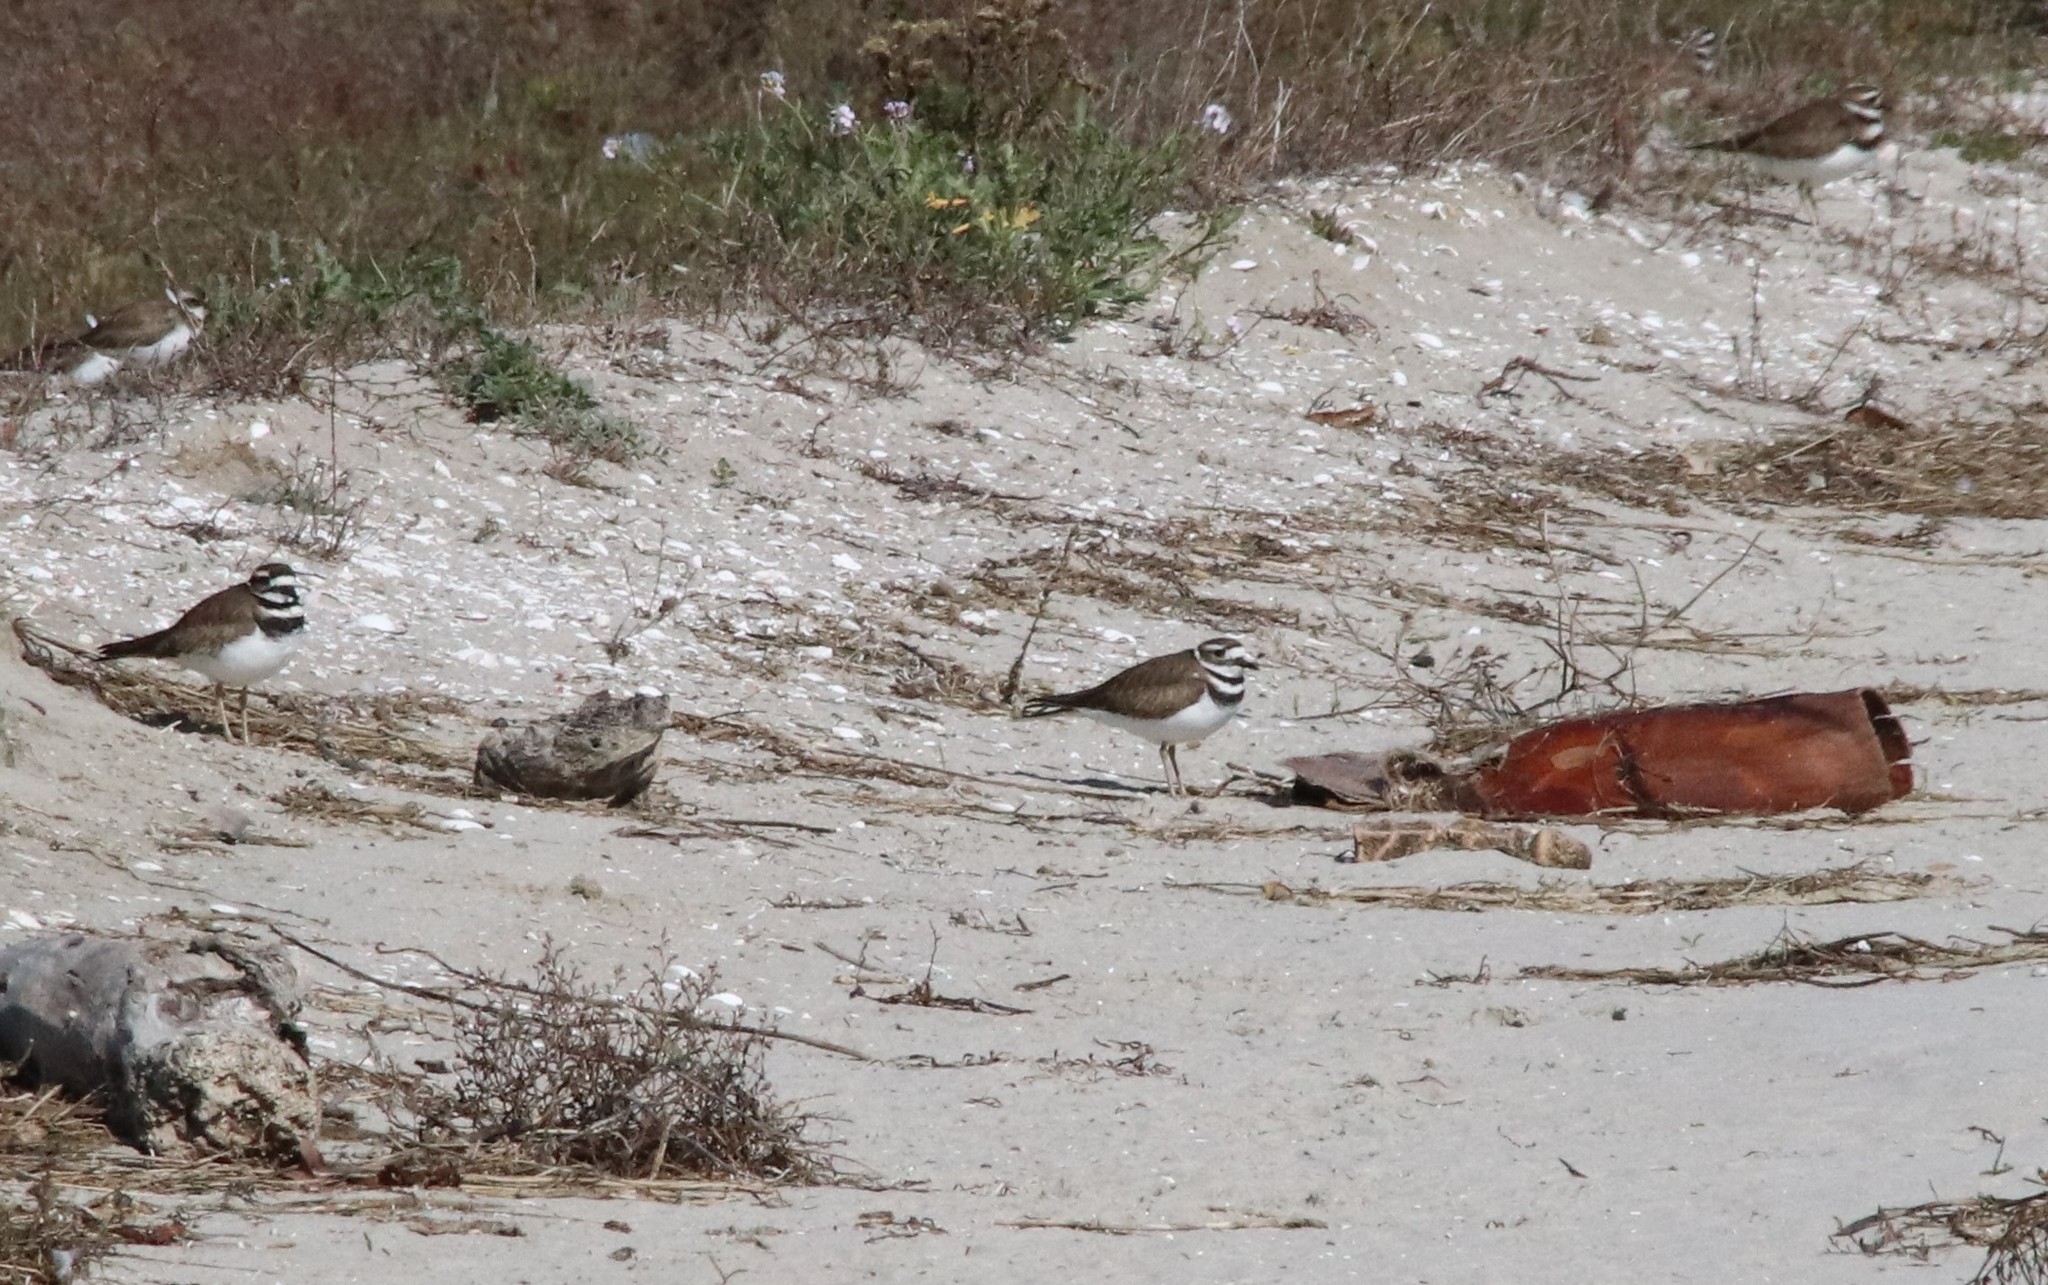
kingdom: Animalia
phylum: Chordata
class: Aves
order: Charadriiformes
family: Charadriidae
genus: Charadrius
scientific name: Charadrius vociferus
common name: Killdeer
